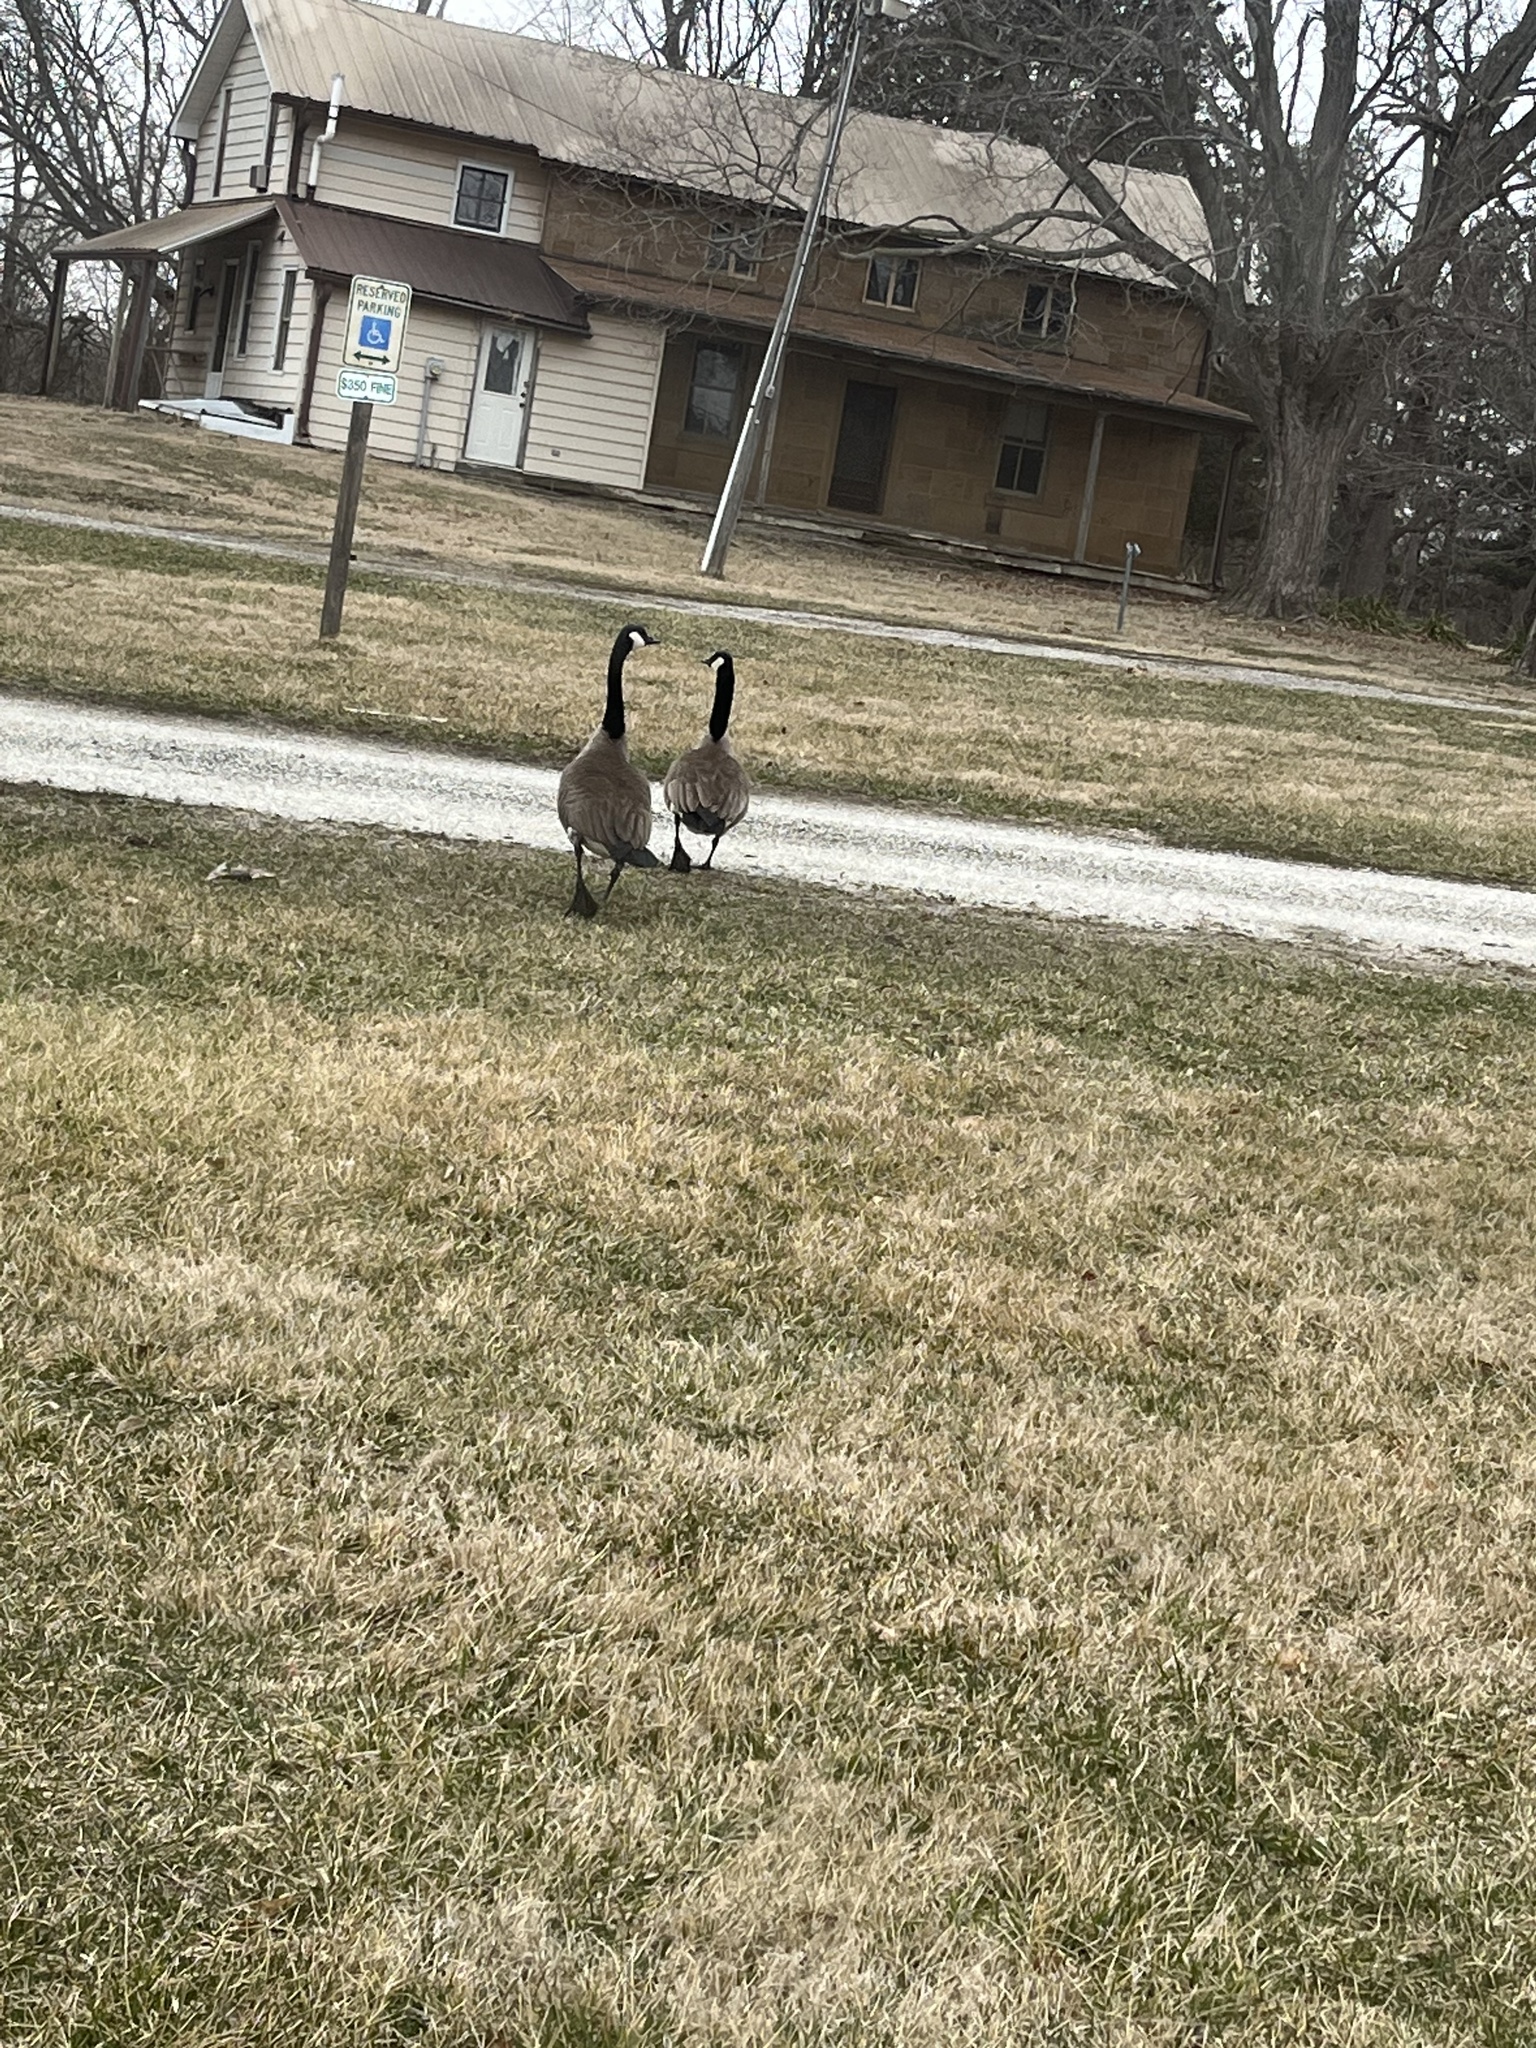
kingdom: Animalia
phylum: Chordata
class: Aves
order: Anseriformes
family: Anatidae
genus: Branta
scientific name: Branta canadensis
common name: Canada goose
